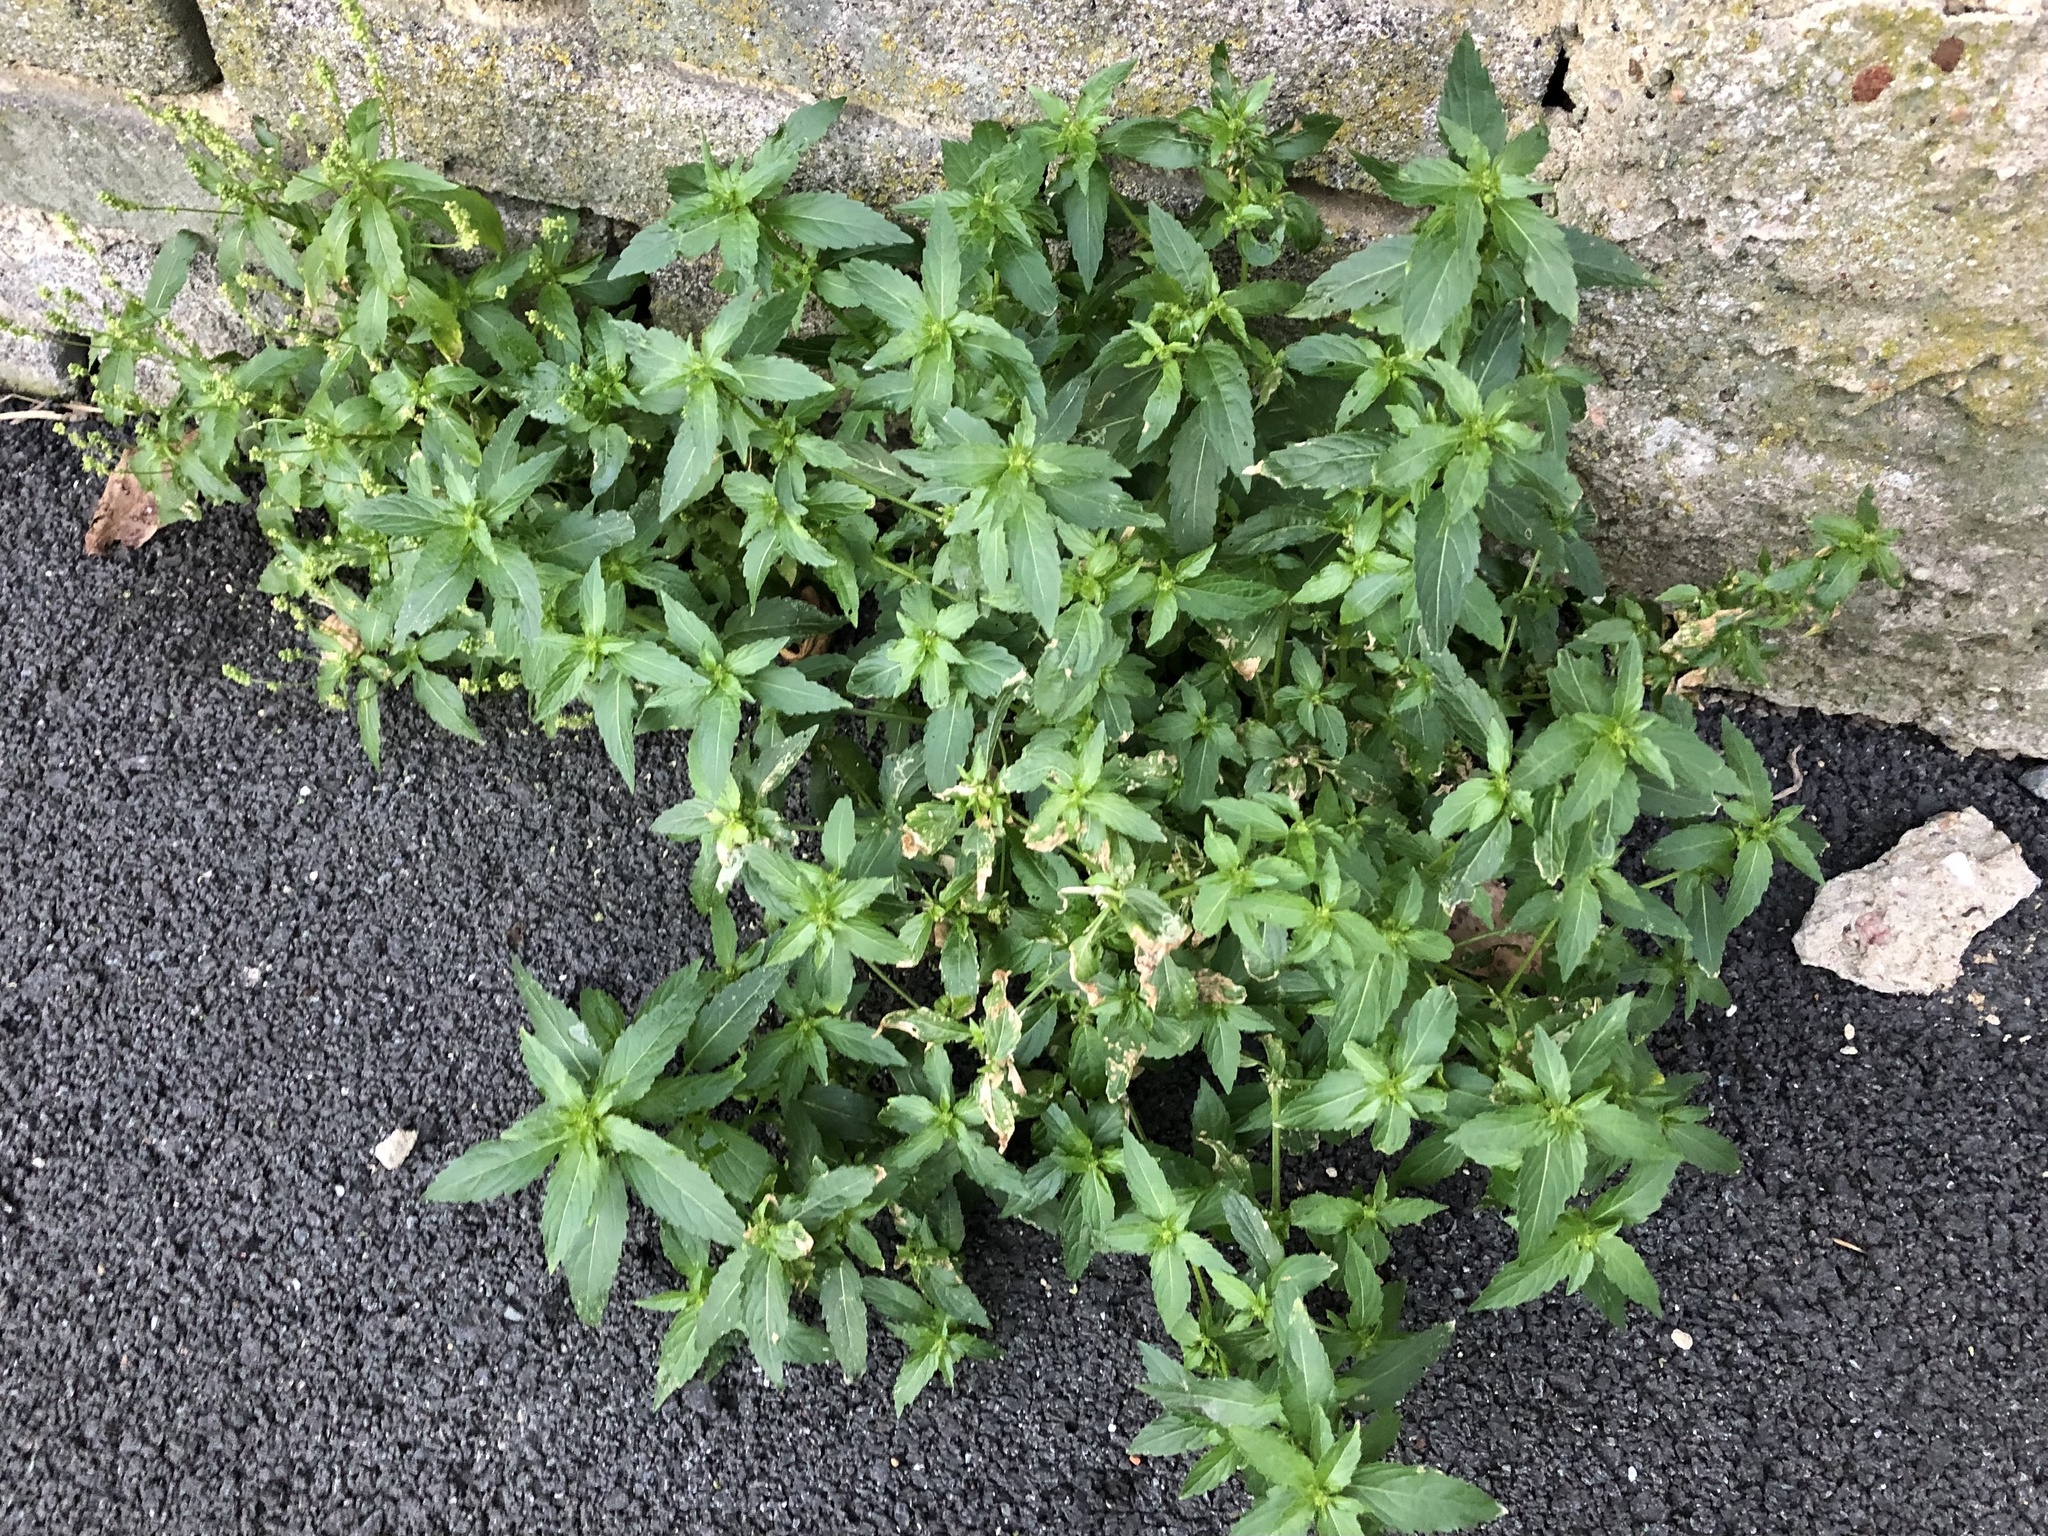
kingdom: Plantae
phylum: Tracheophyta
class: Magnoliopsida
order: Malpighiales
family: Euphorbiaceae
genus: Mercurialis
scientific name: Mercurialis annua
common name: Annual mercury
